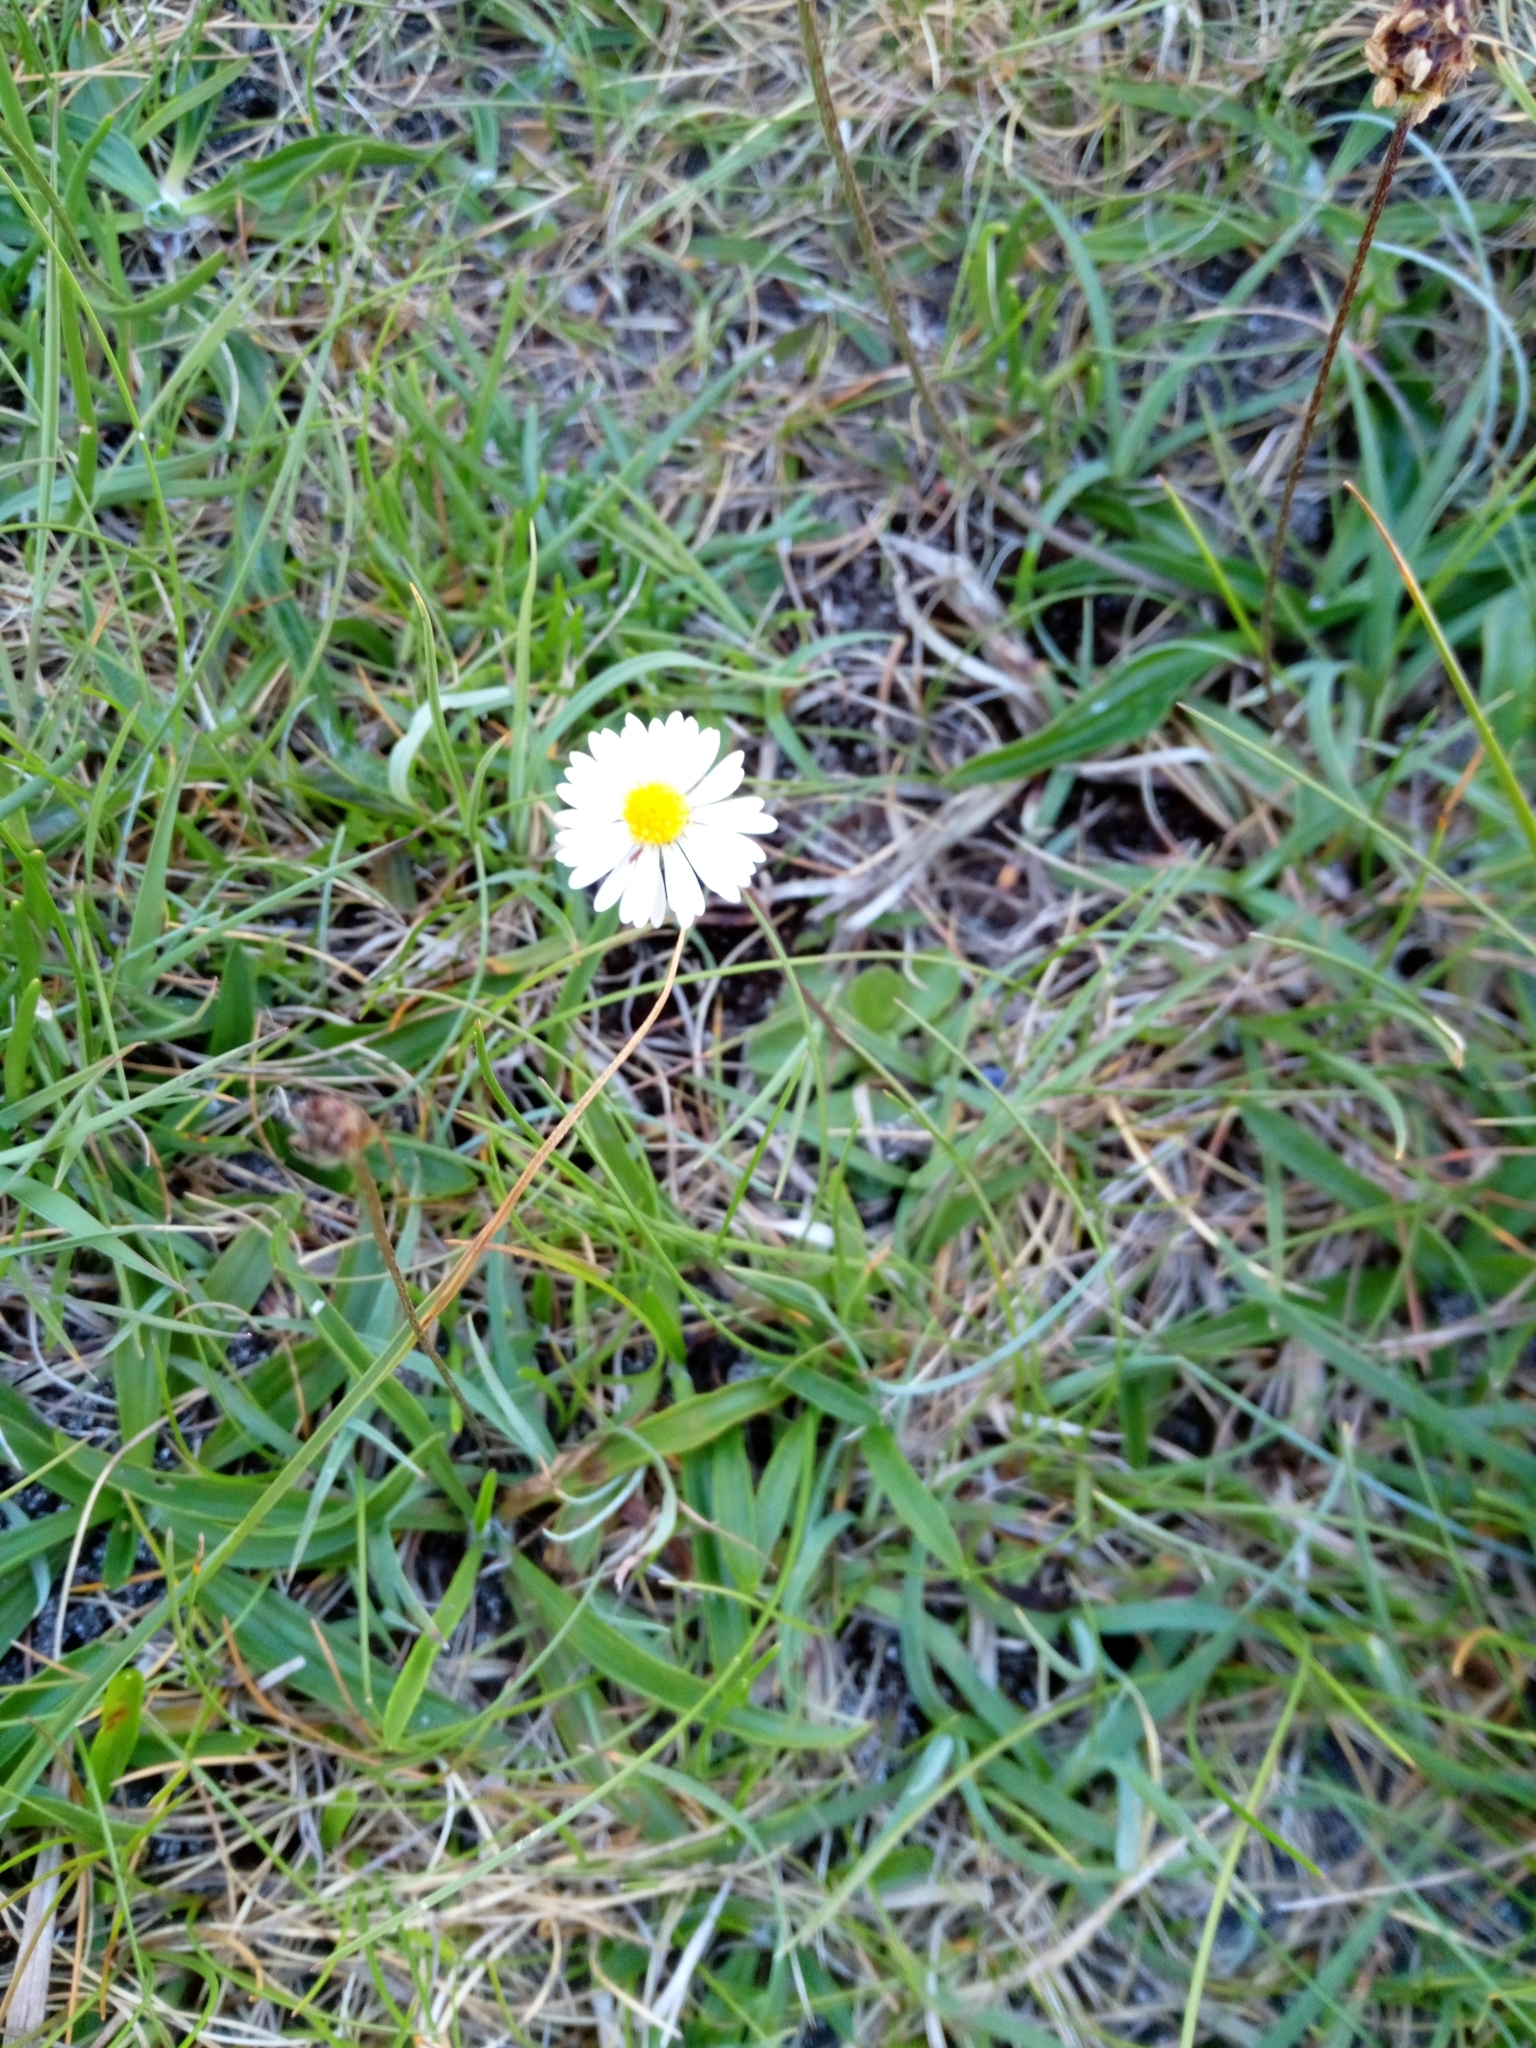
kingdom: Plantae
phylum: Tracheophyta
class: Magnoliopsida
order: Asterales
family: Asteraceae
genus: Bellis
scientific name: Bellis perennis
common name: Lawndaisy
